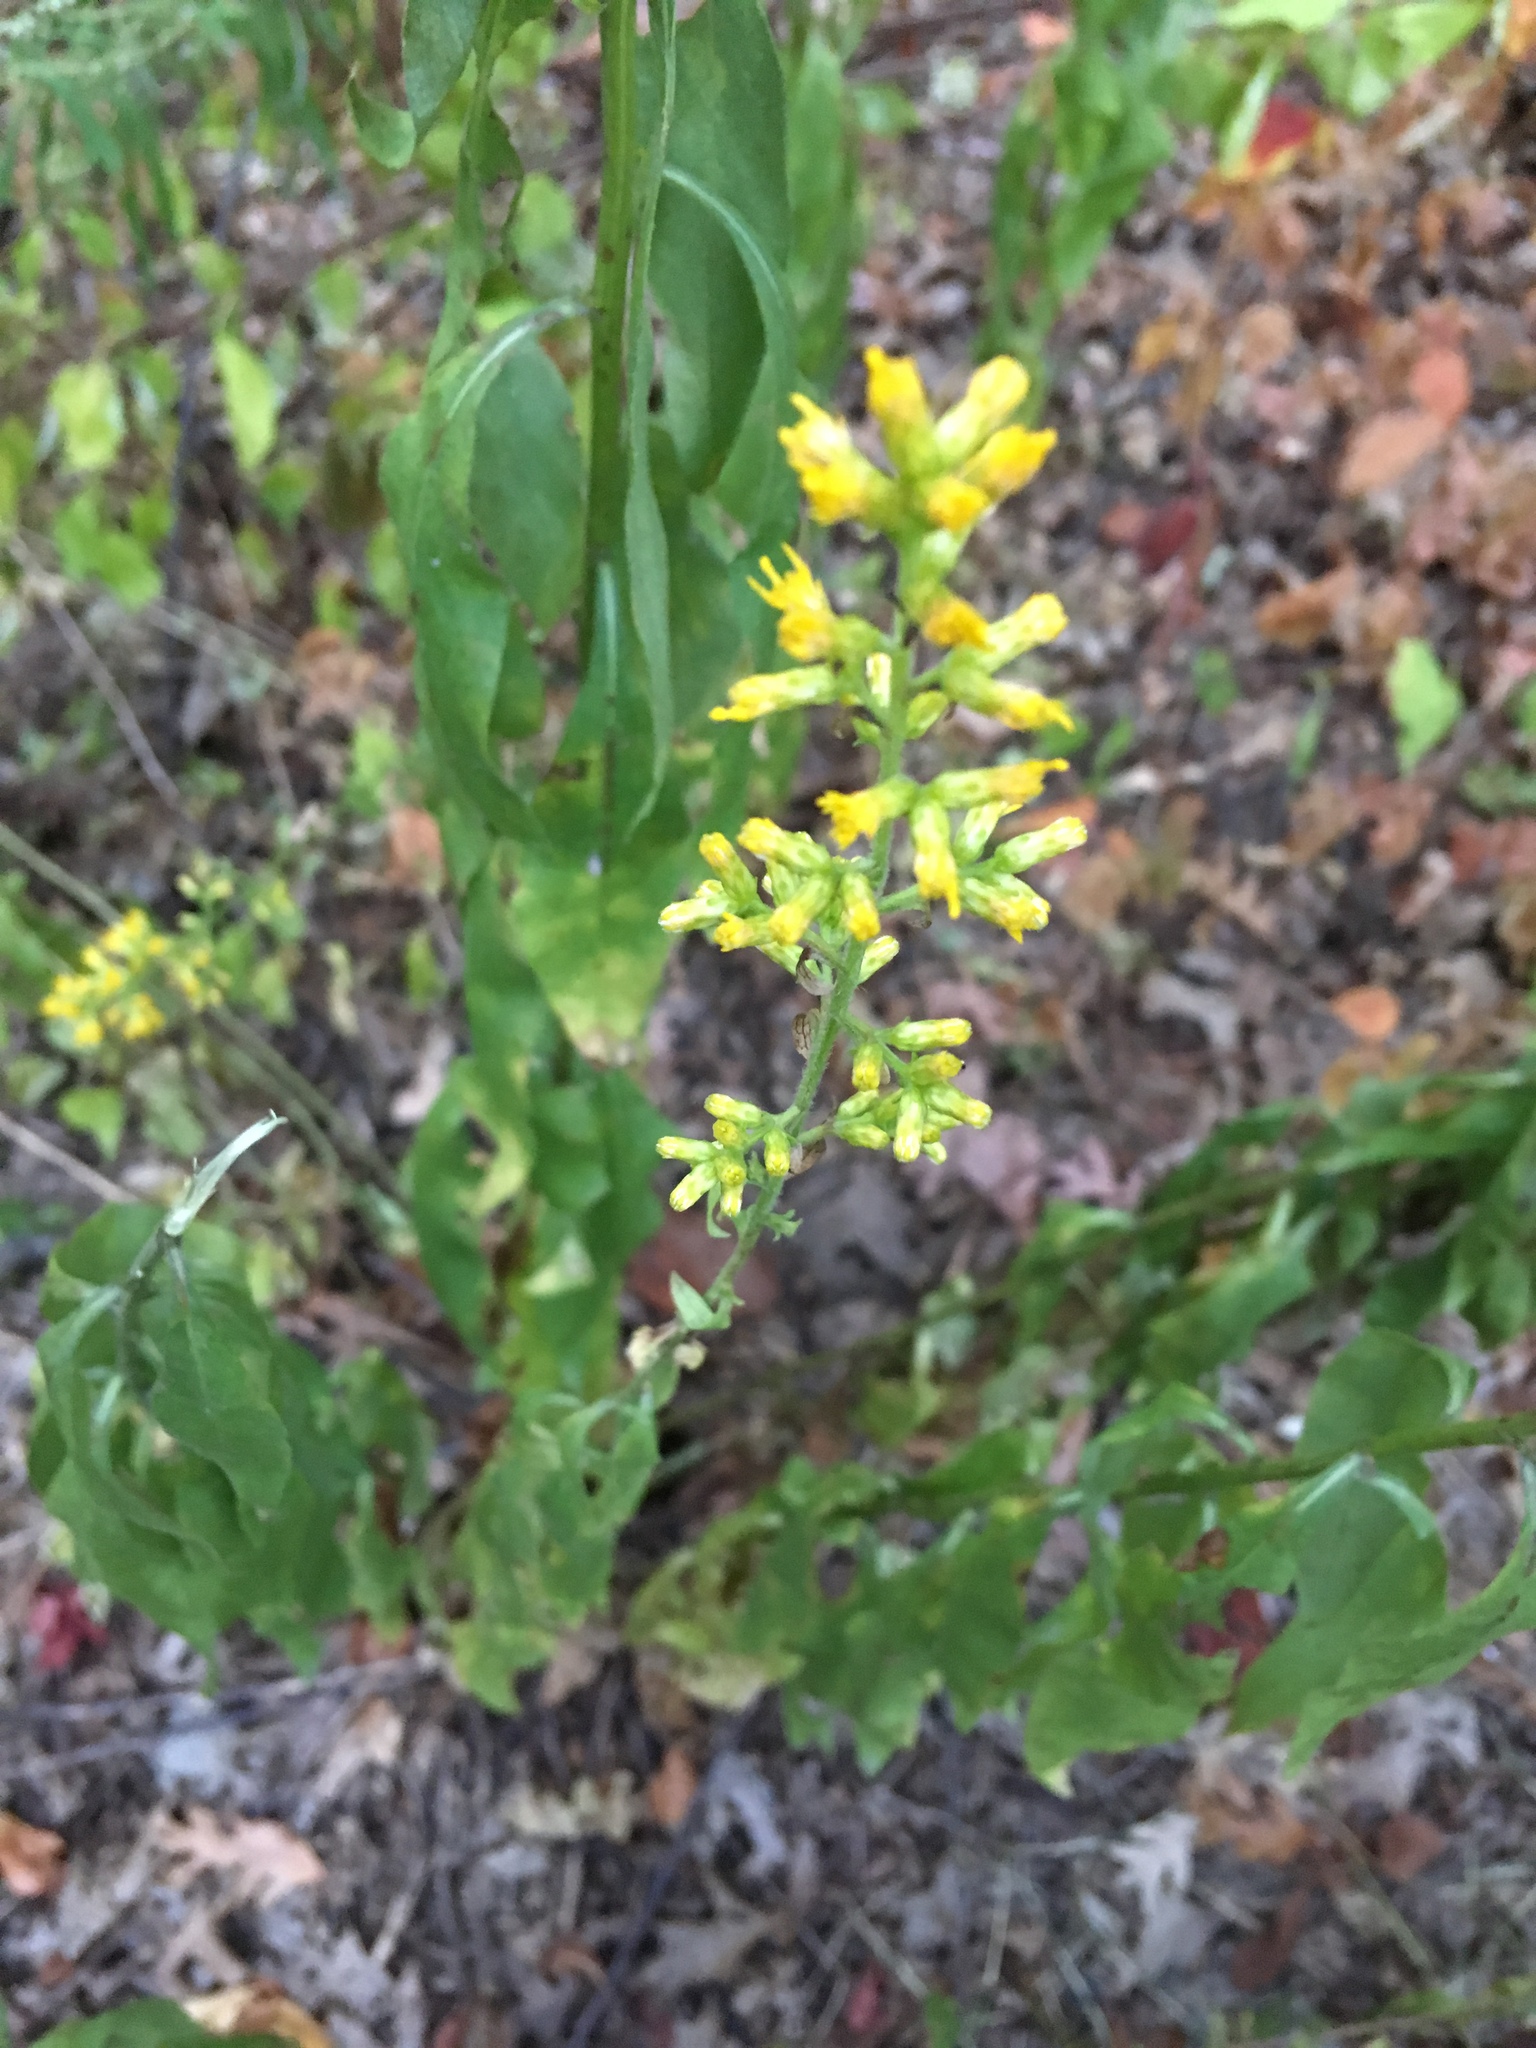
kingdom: Plantae
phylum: Tracheophyta
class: Magnoliopsida
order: Asterales
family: Asteraceae
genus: Solidago
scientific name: Solidago speciosa
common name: Showy goldenrod
